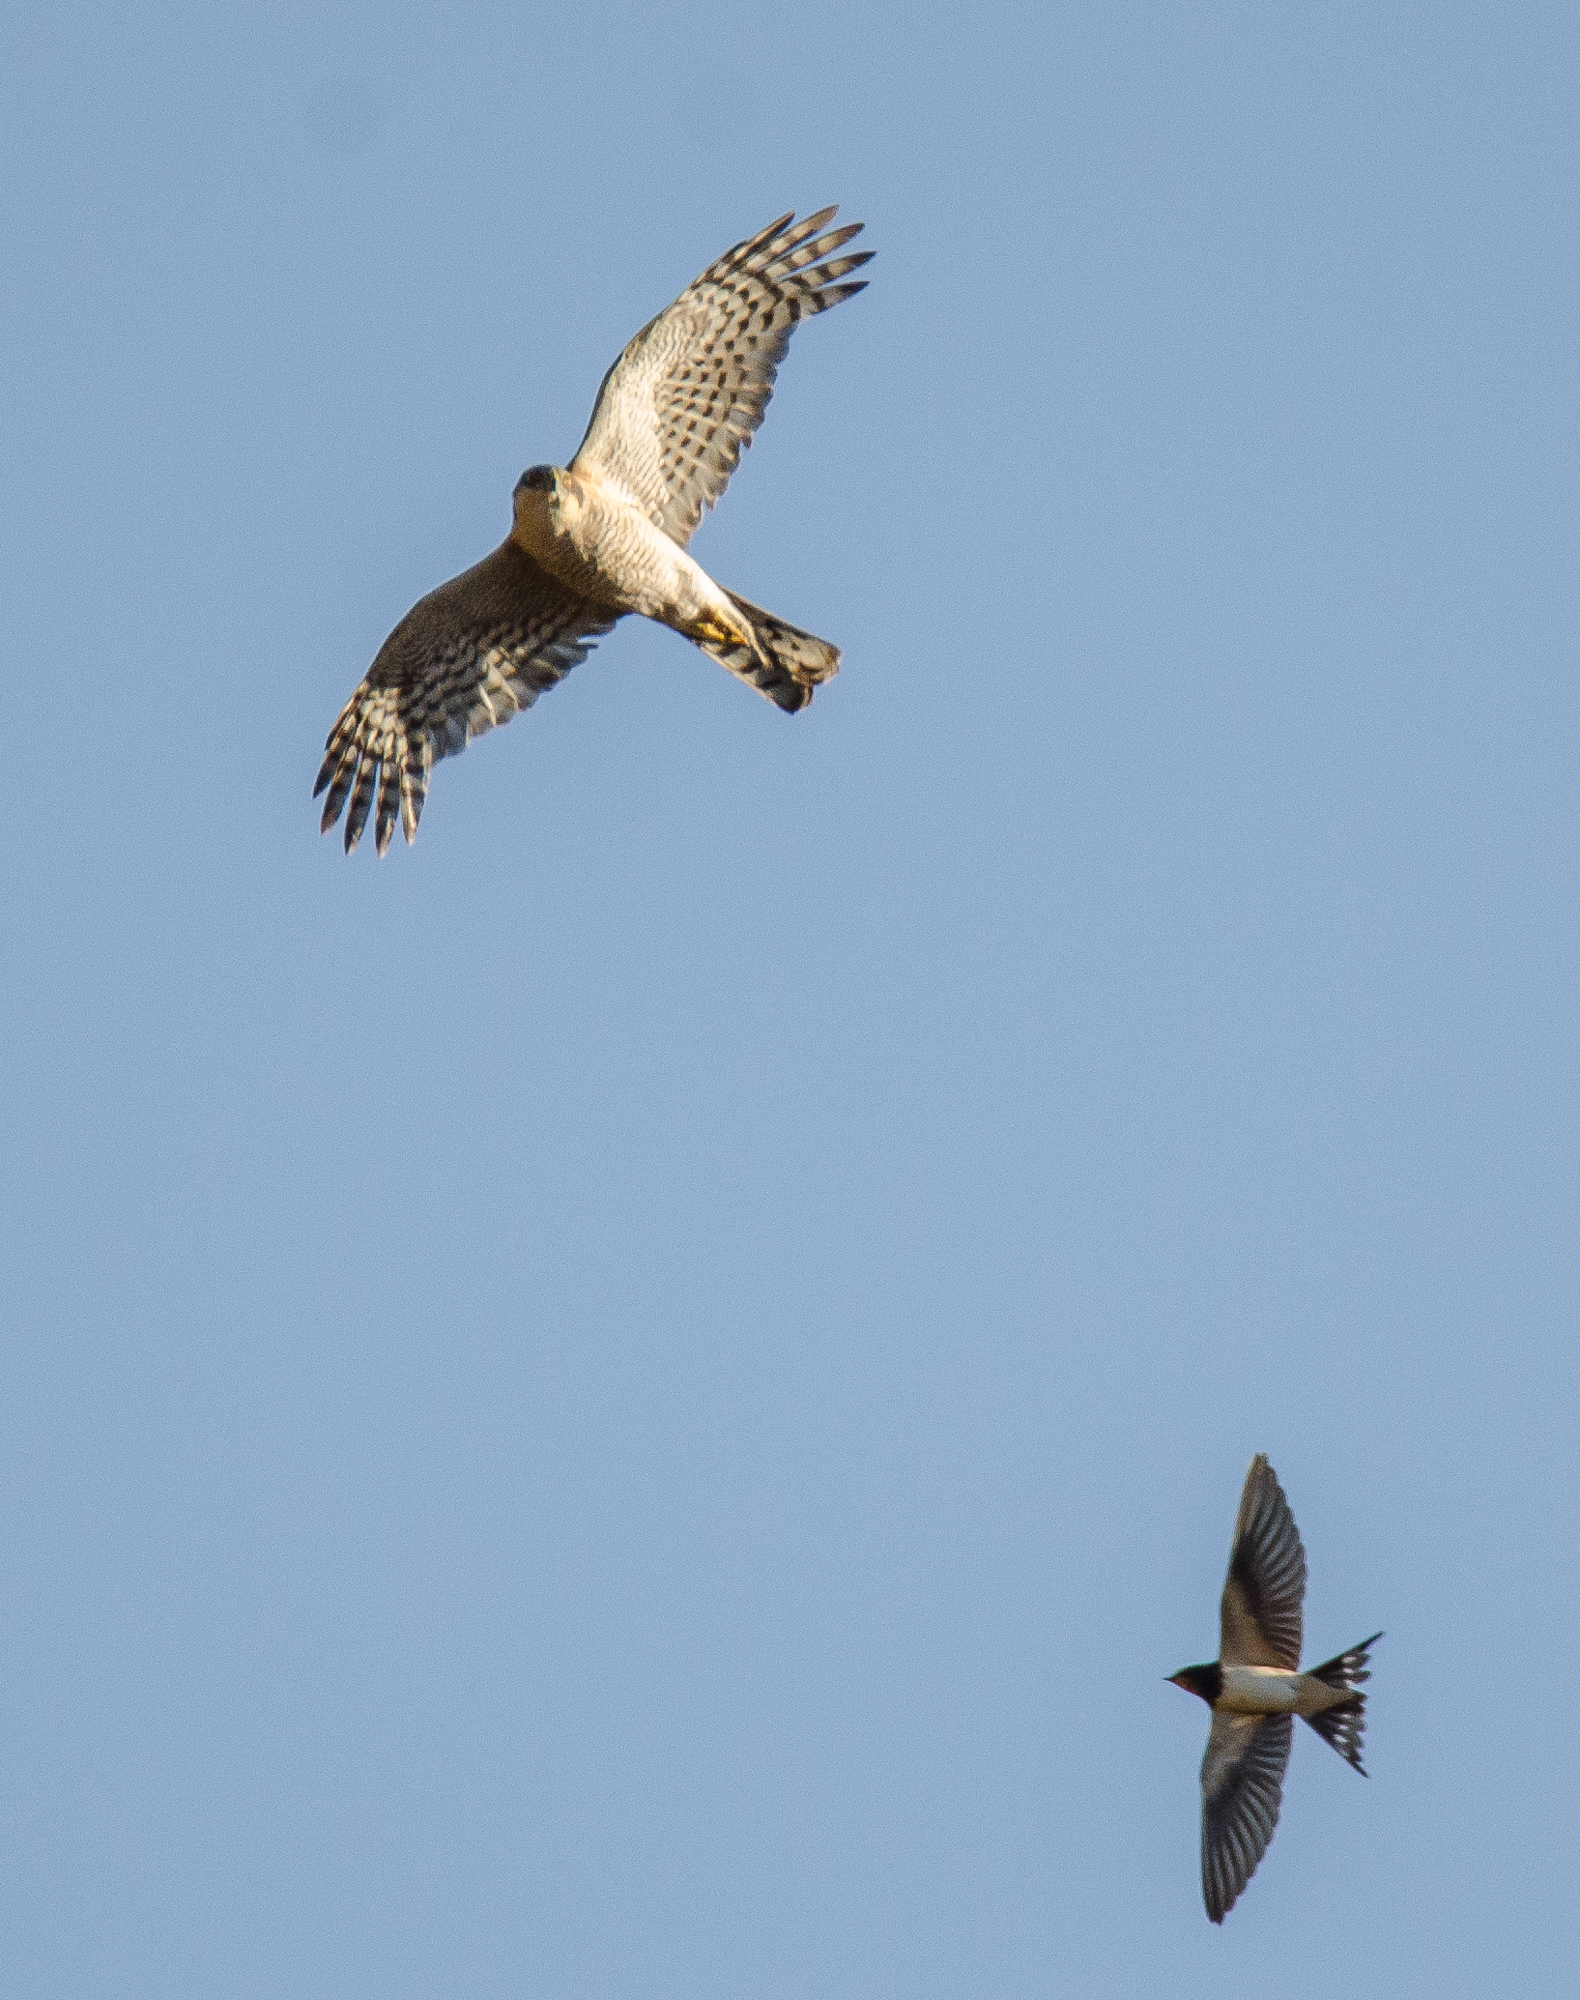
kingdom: Animalia
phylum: Chordata
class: Aves
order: Accipitriformes
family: Accipitridae
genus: Accipiter
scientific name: Accipiter nisus
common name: Eurasian sparrowhawk
